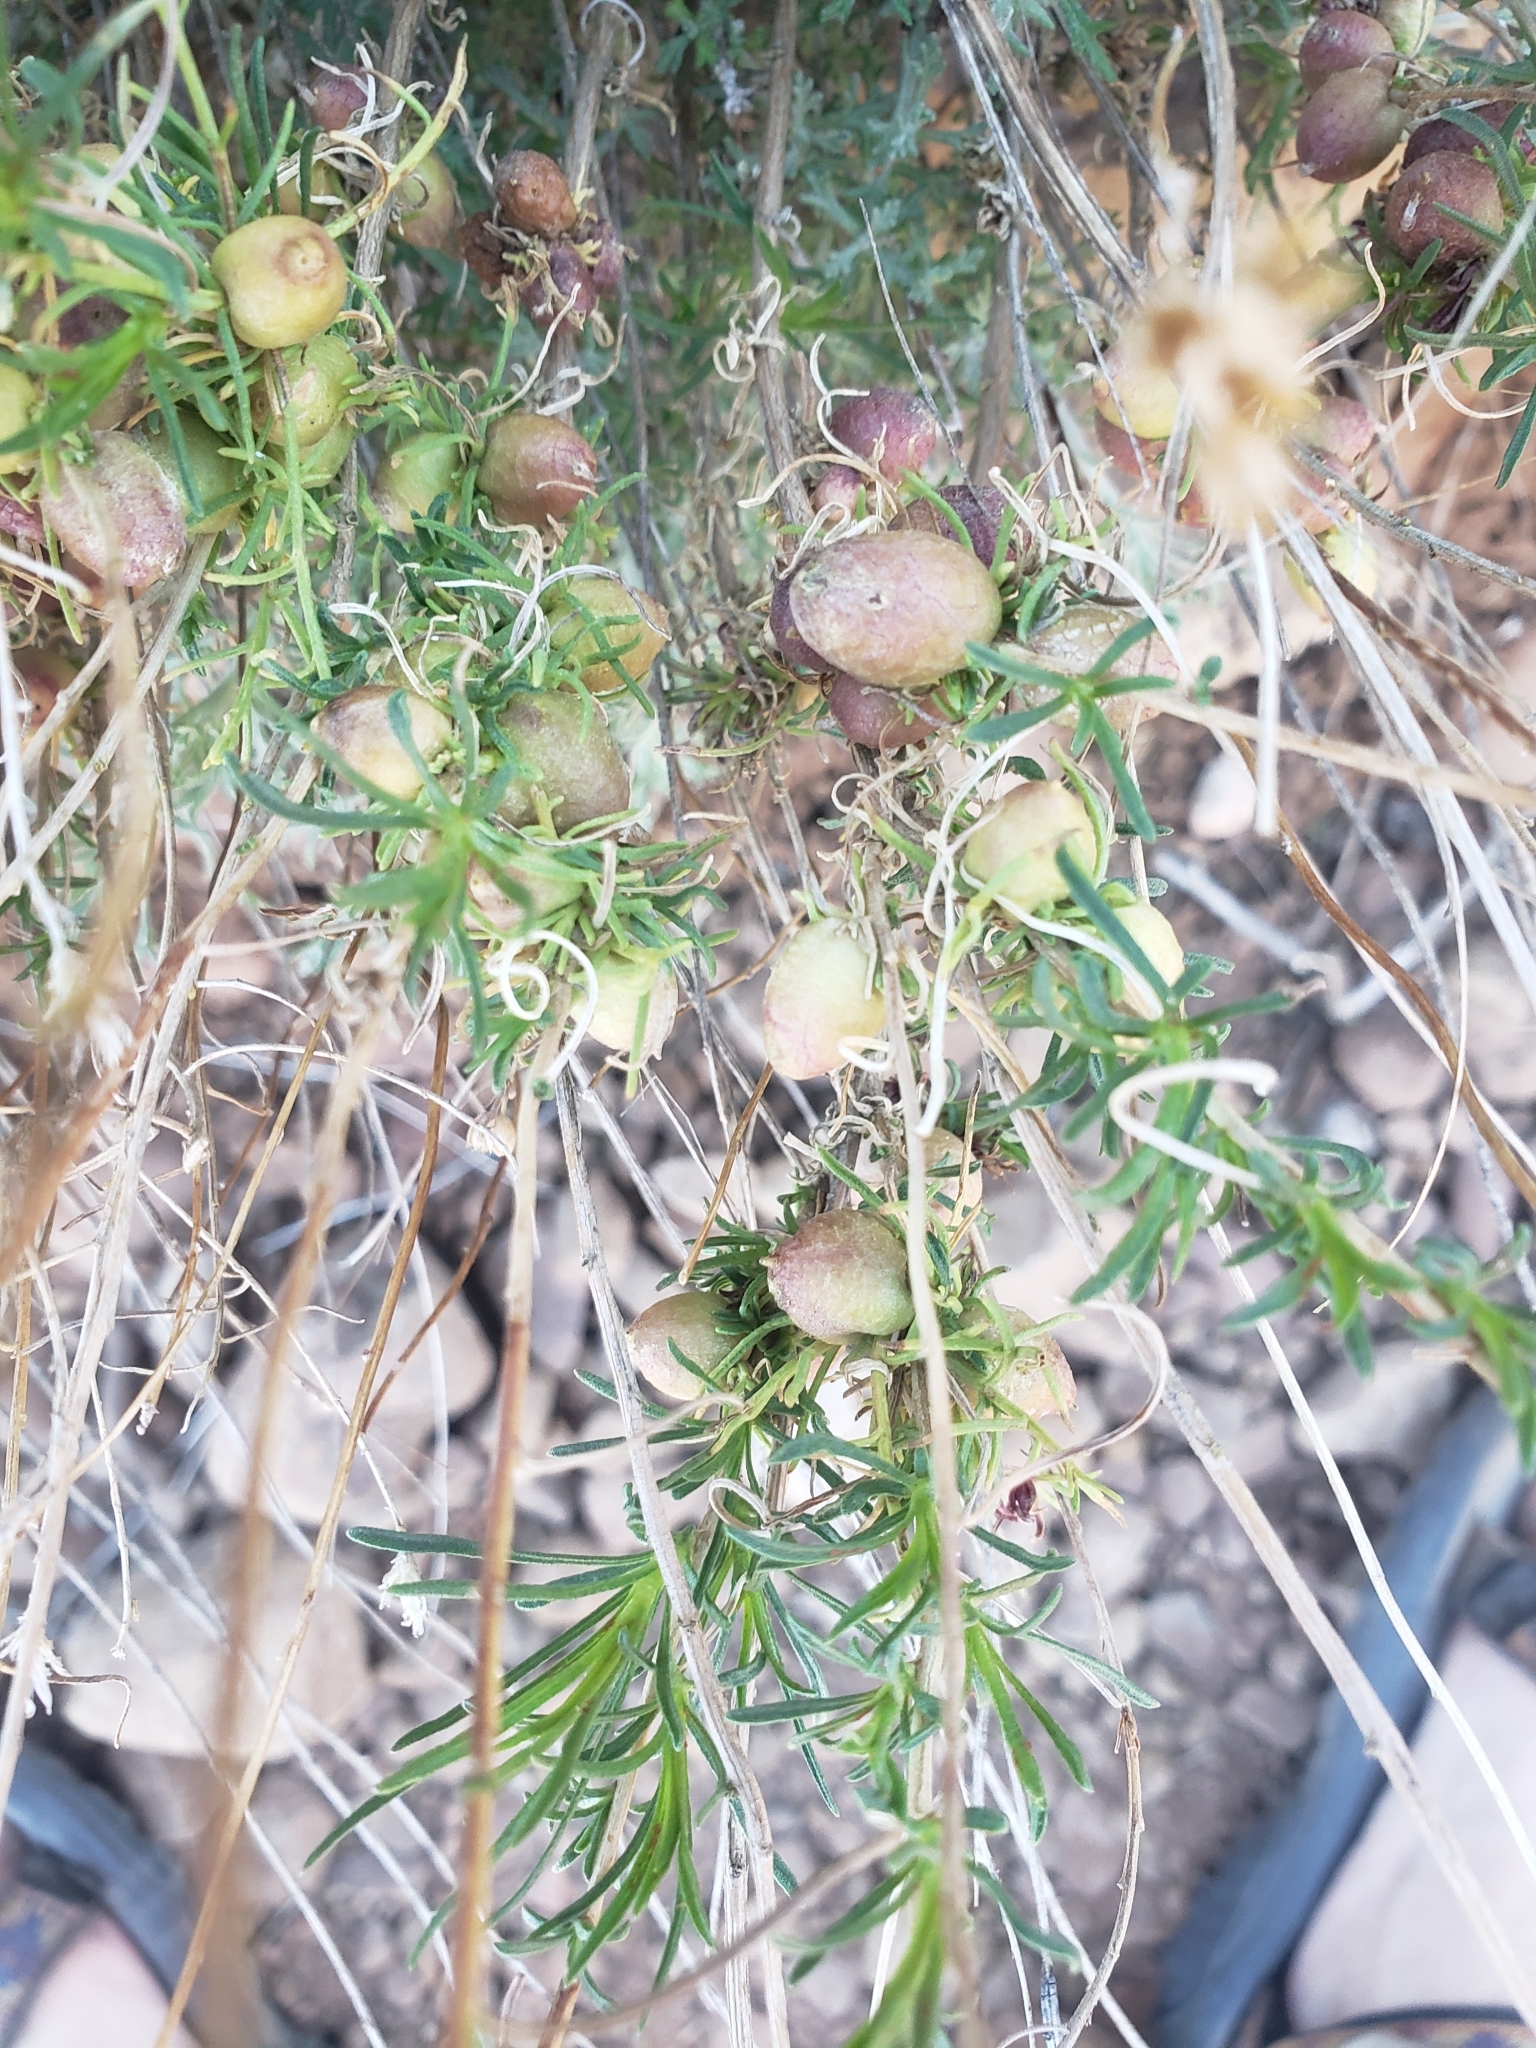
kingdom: Plantae
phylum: Tracheophyta
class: Magnoliopsida
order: Brassicales
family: Cleomaceae
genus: Cleomella
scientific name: Cleomella arborea
